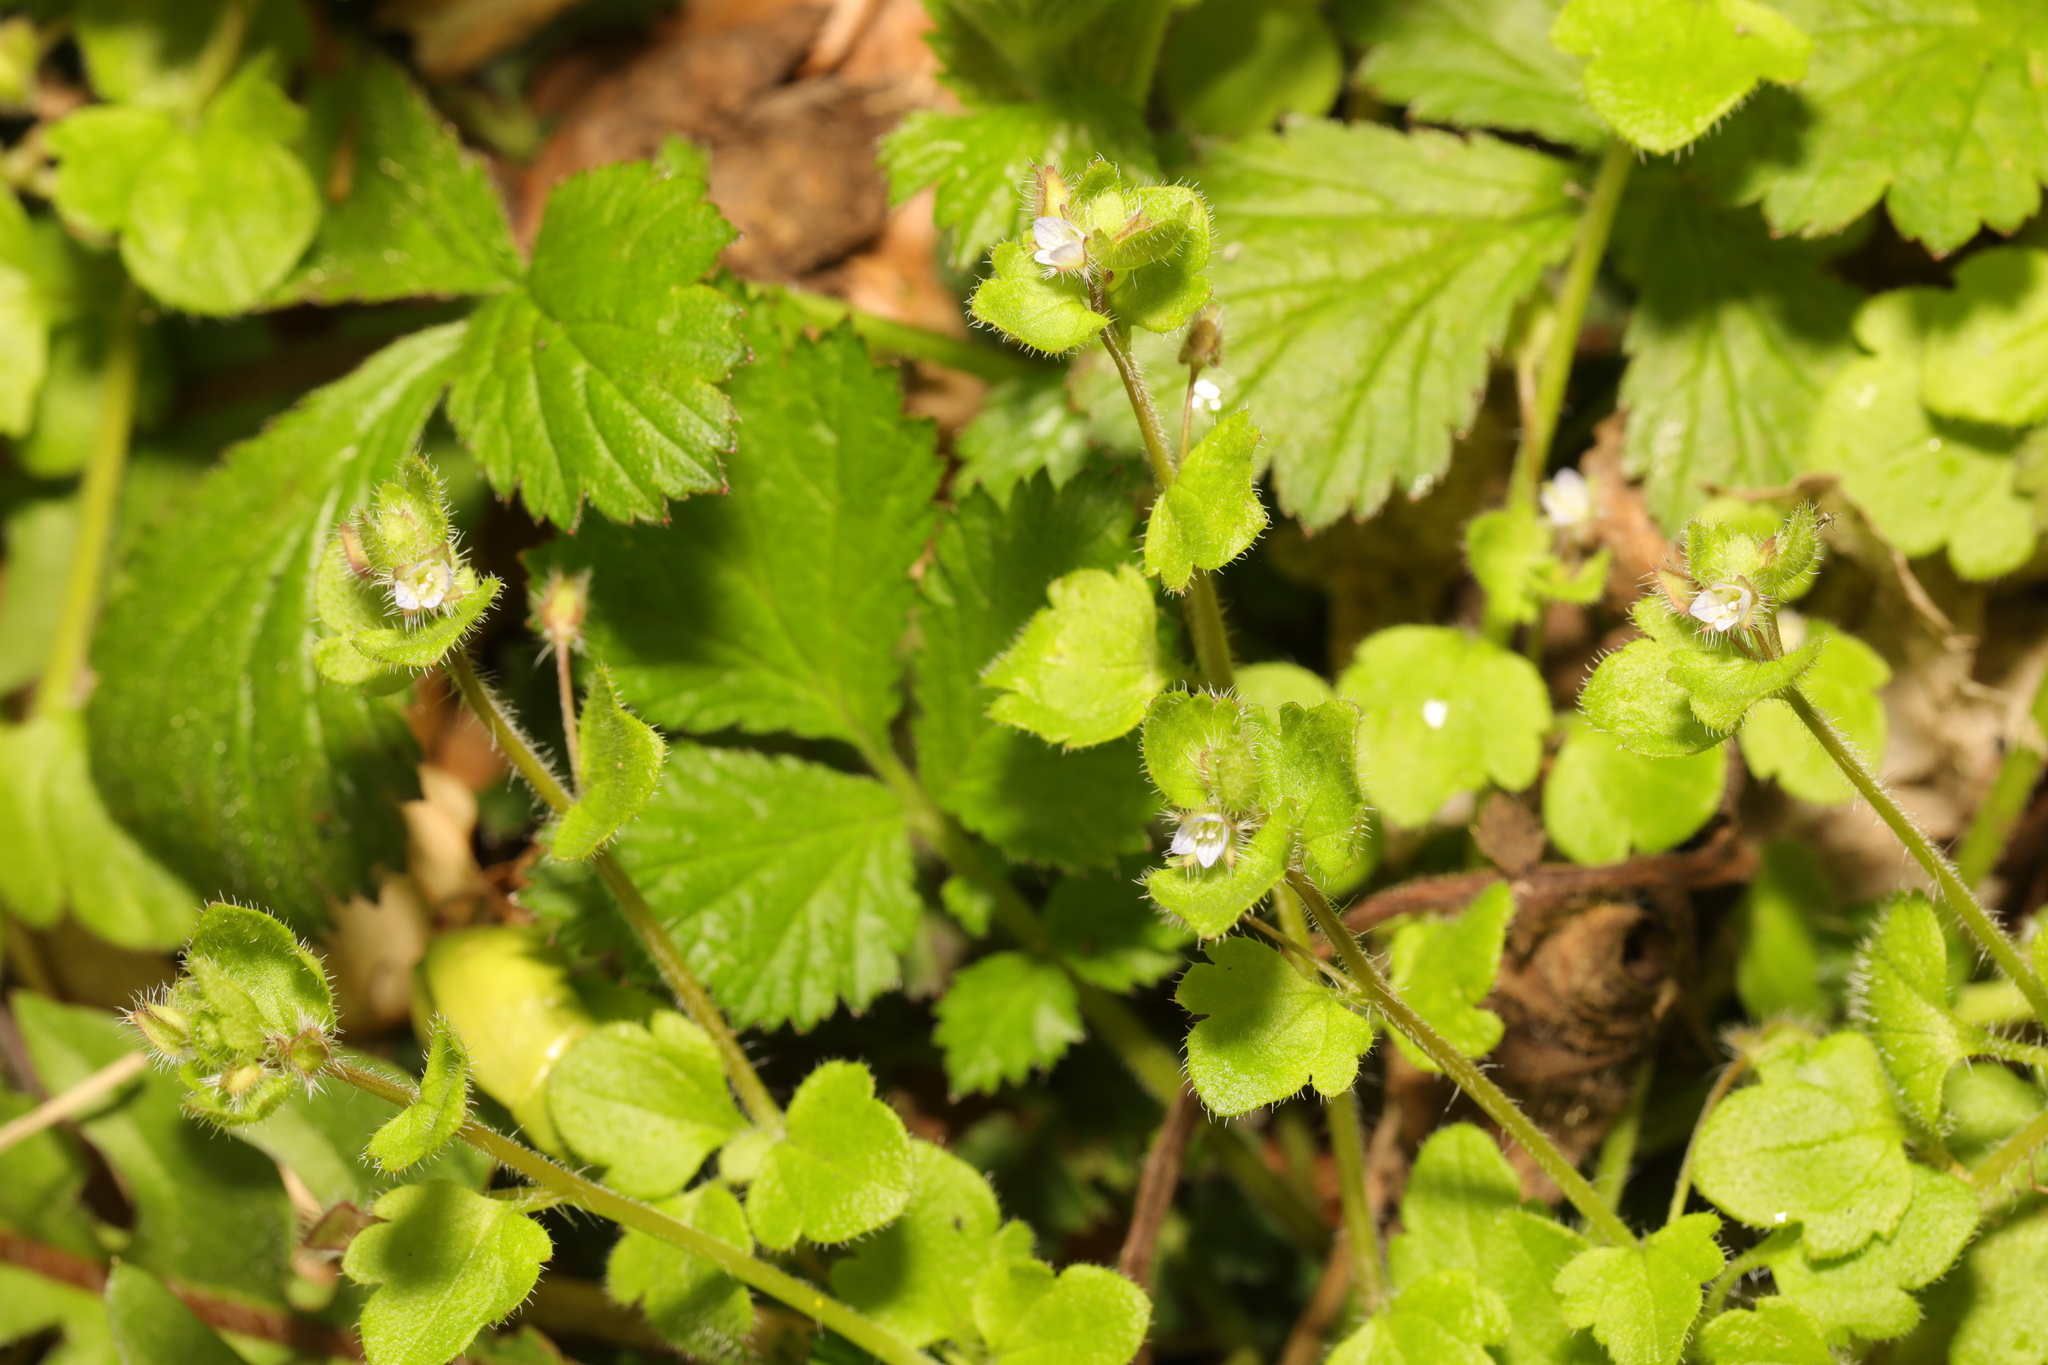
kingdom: Plantae
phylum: Tracheophyta
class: Magnoliopsida
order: Lamiales
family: Plantaginaceae
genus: Veronica
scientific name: Veronica sublobata
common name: False ivy-leaved speedwell
